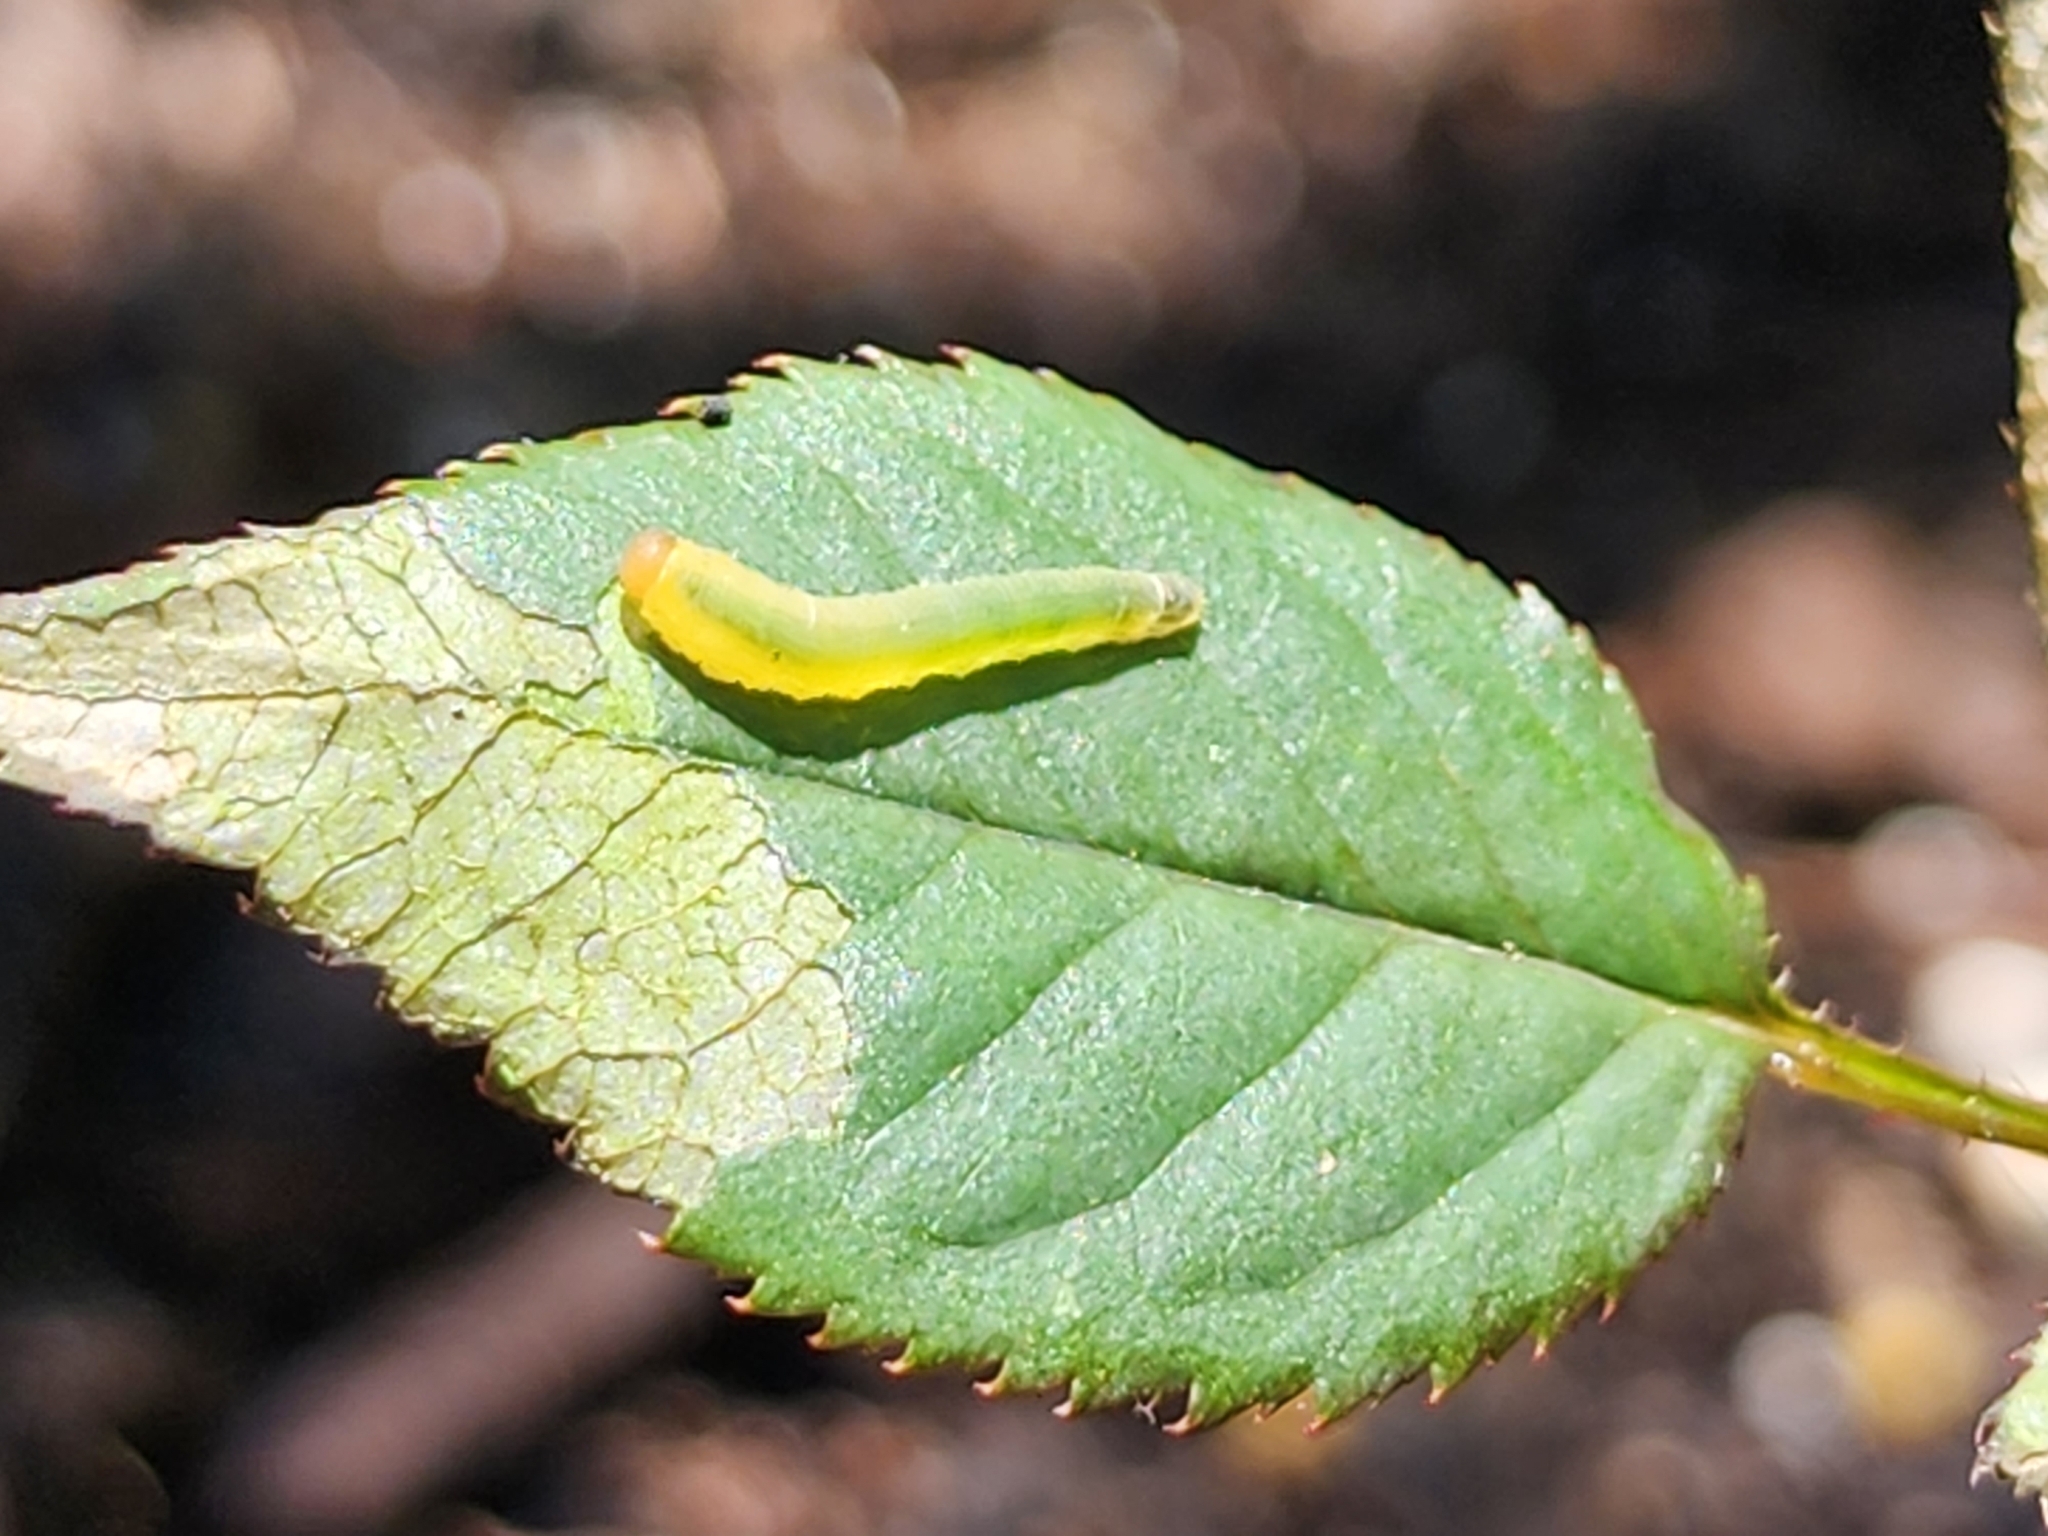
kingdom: Animalia
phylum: Arthropoda
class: Insecta
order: Hymenoptera
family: Tenthredinidae
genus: Endelomyia
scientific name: Endelomyia aethiops
